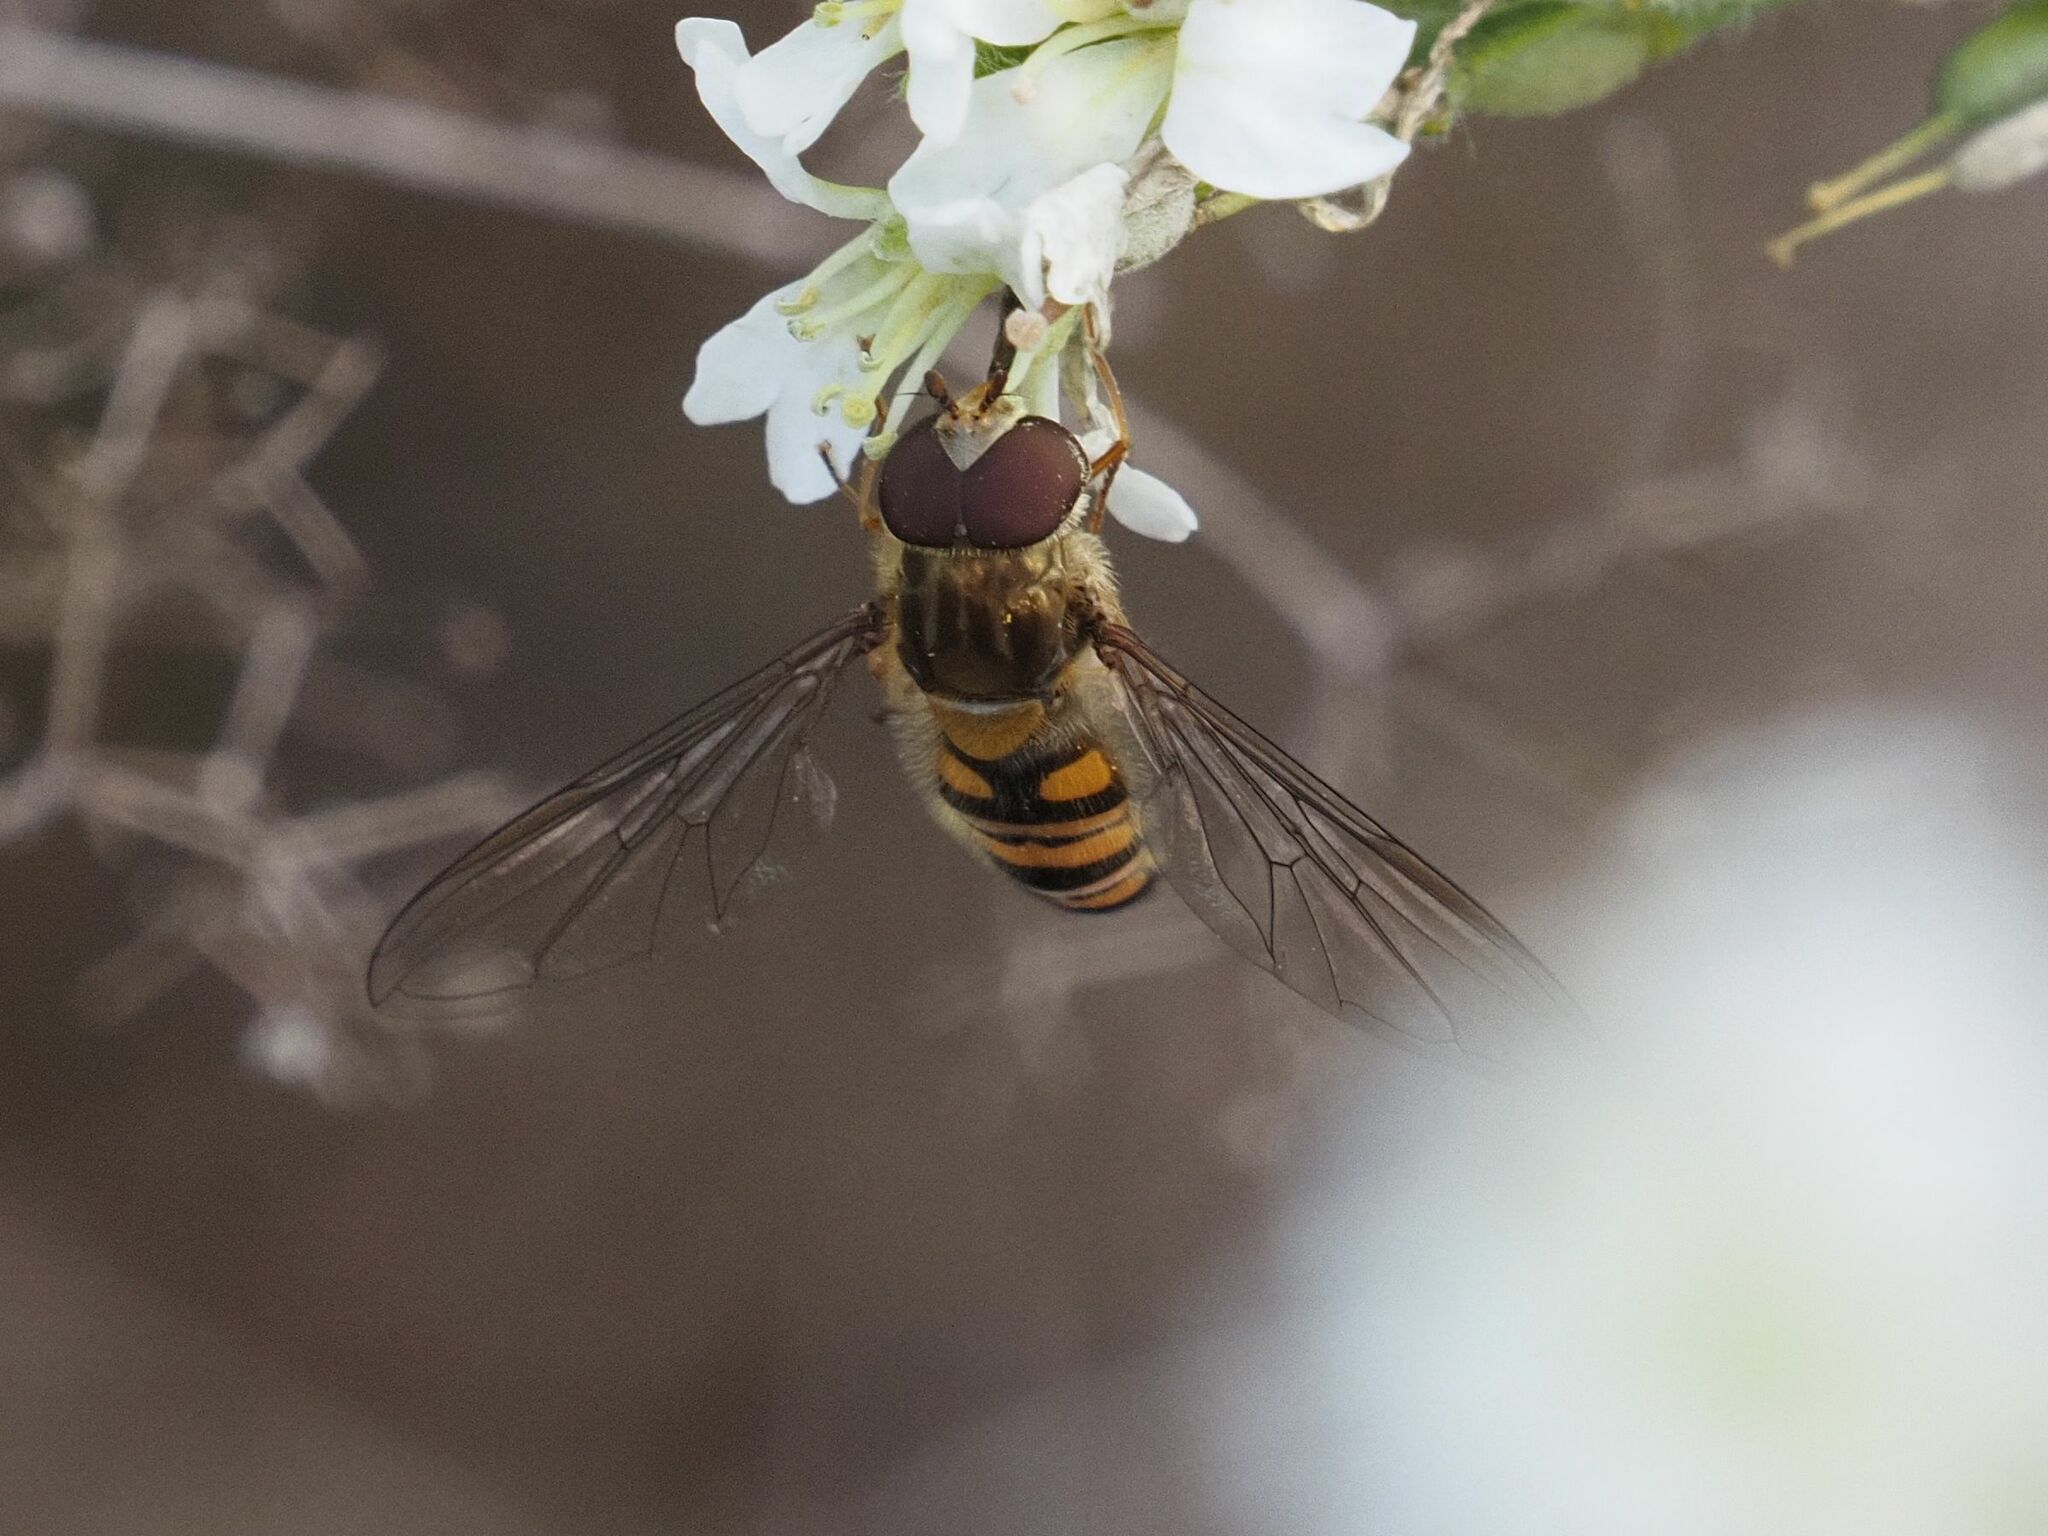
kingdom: Animalia
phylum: Arthropoda
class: Insecta
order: Diptera
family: Syrphidae
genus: Episyrphus
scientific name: Episyrphus balteatus
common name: Marmalade hoverfly
